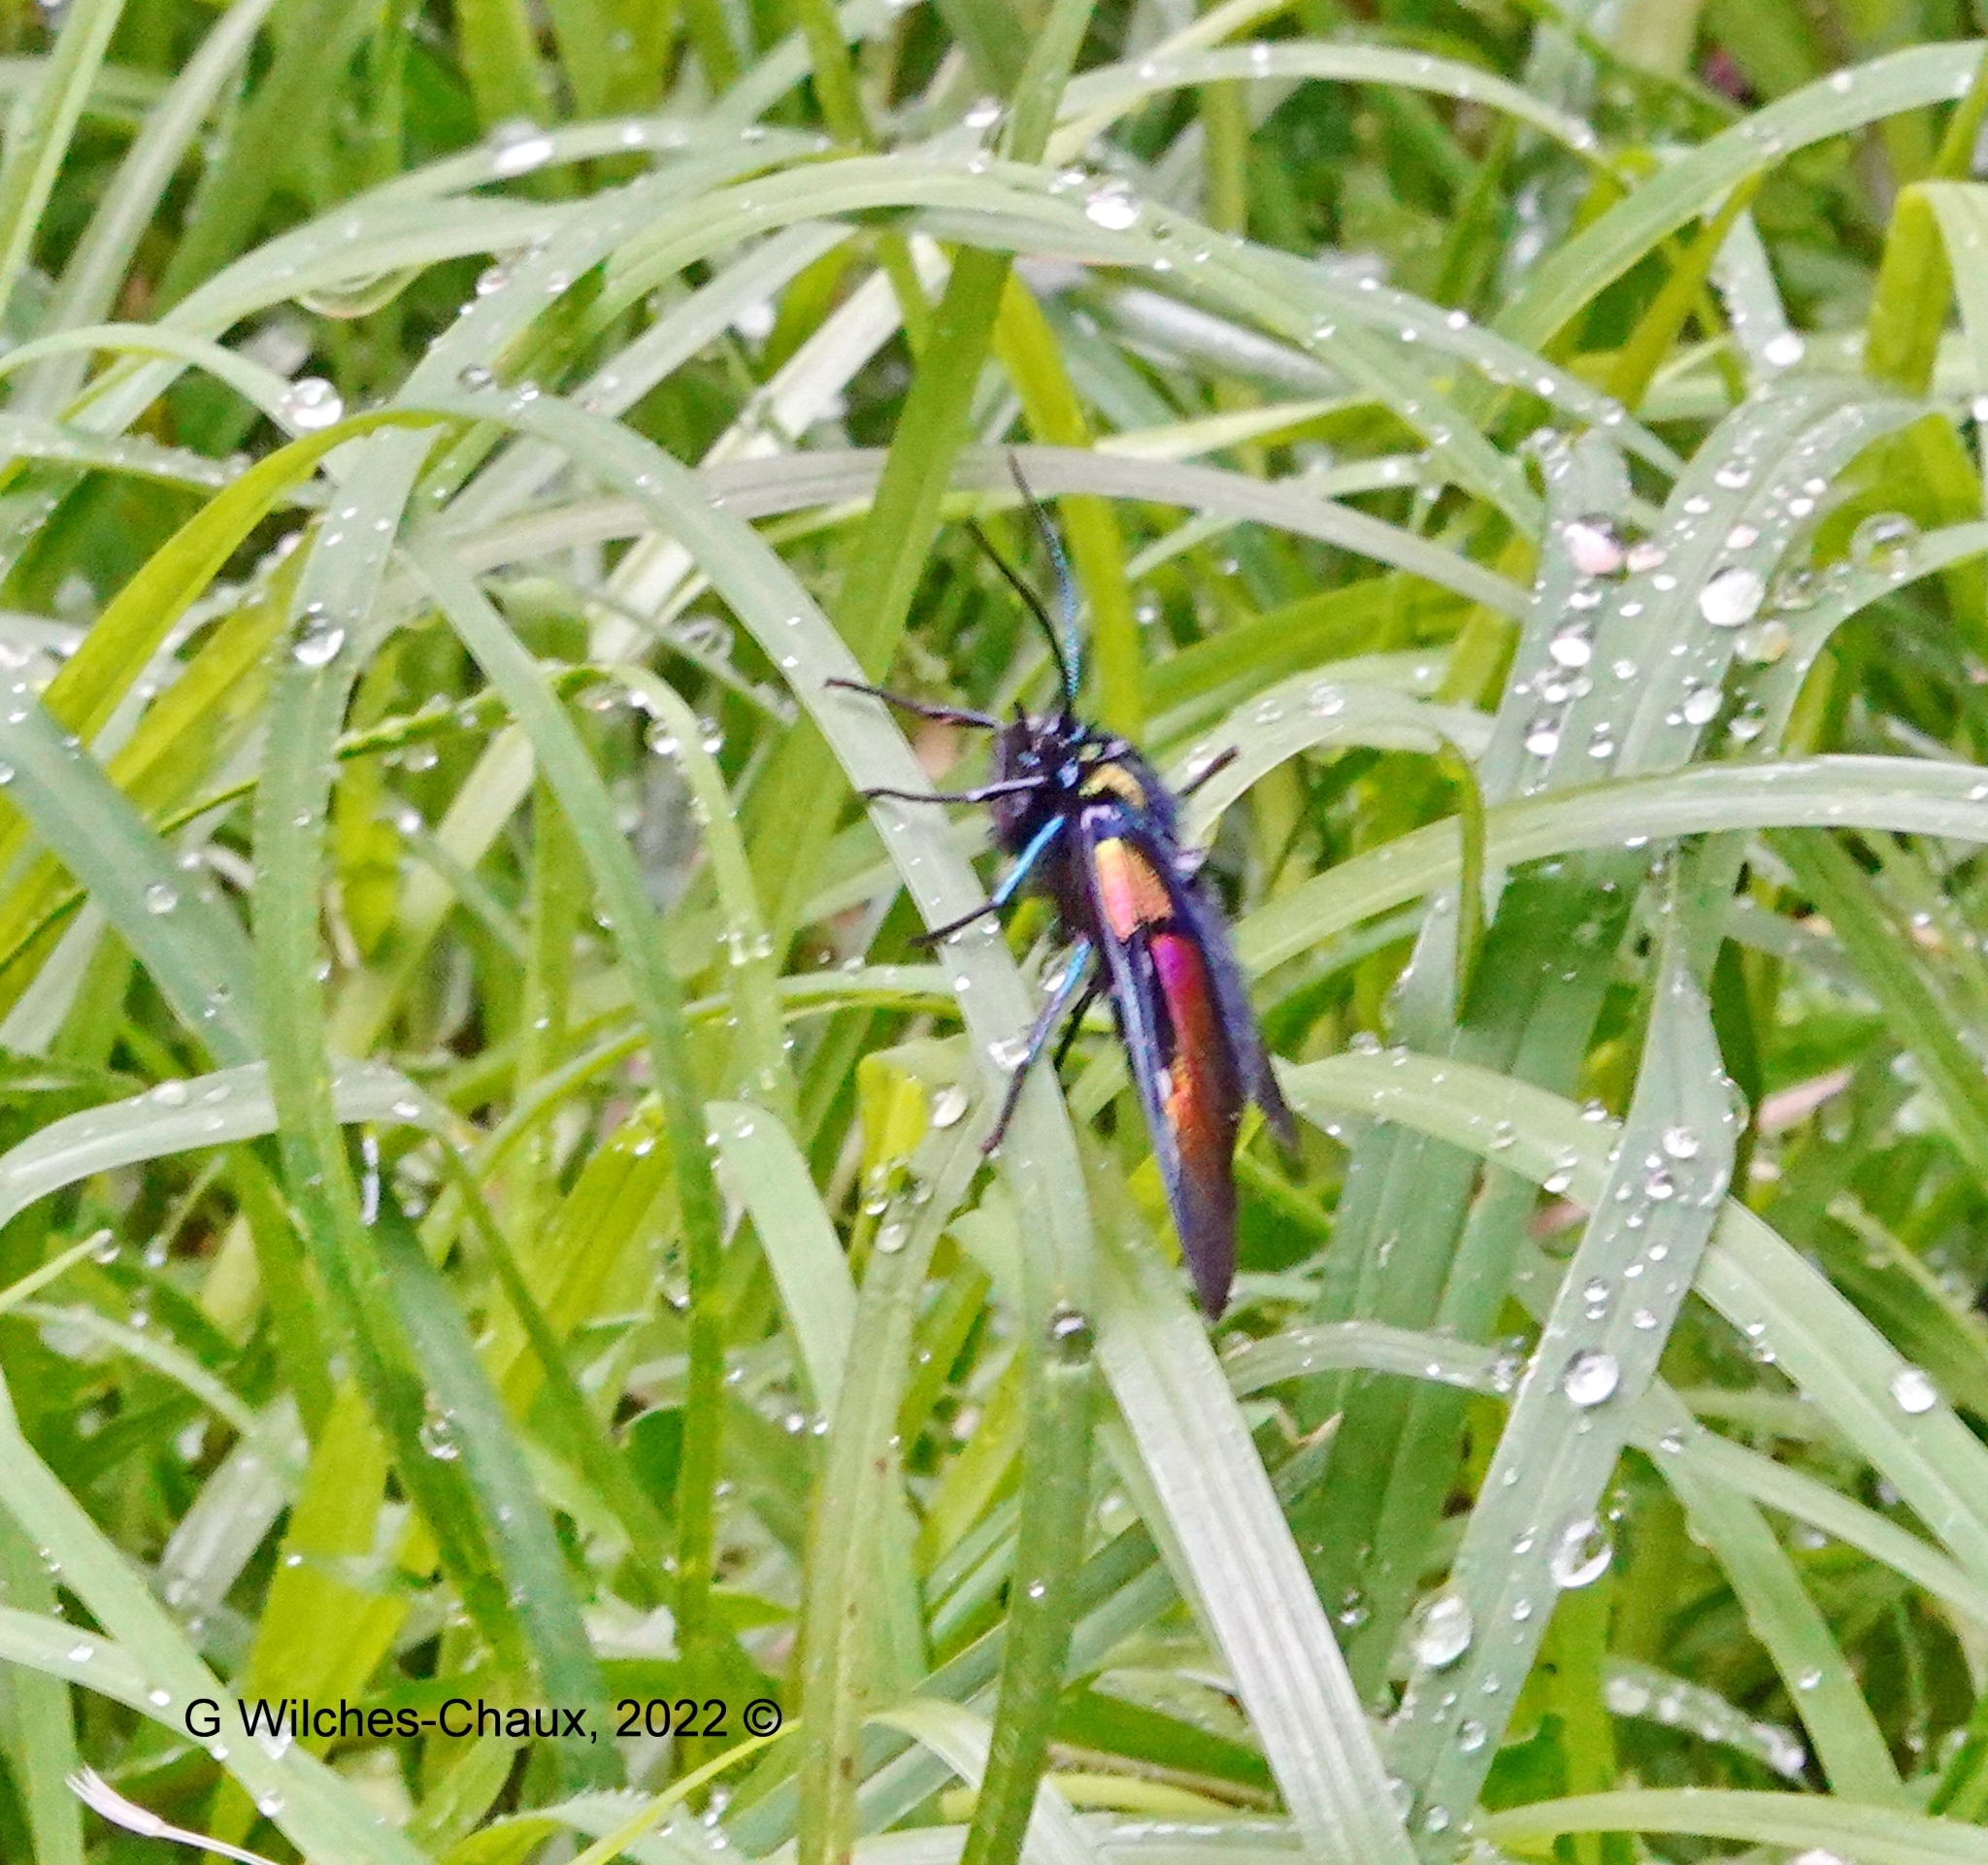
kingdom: Animalia
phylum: Arthropoda
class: Insecta
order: Lepidoptera
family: Erebidae
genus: Chrysocale
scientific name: Chrysocale ignita
